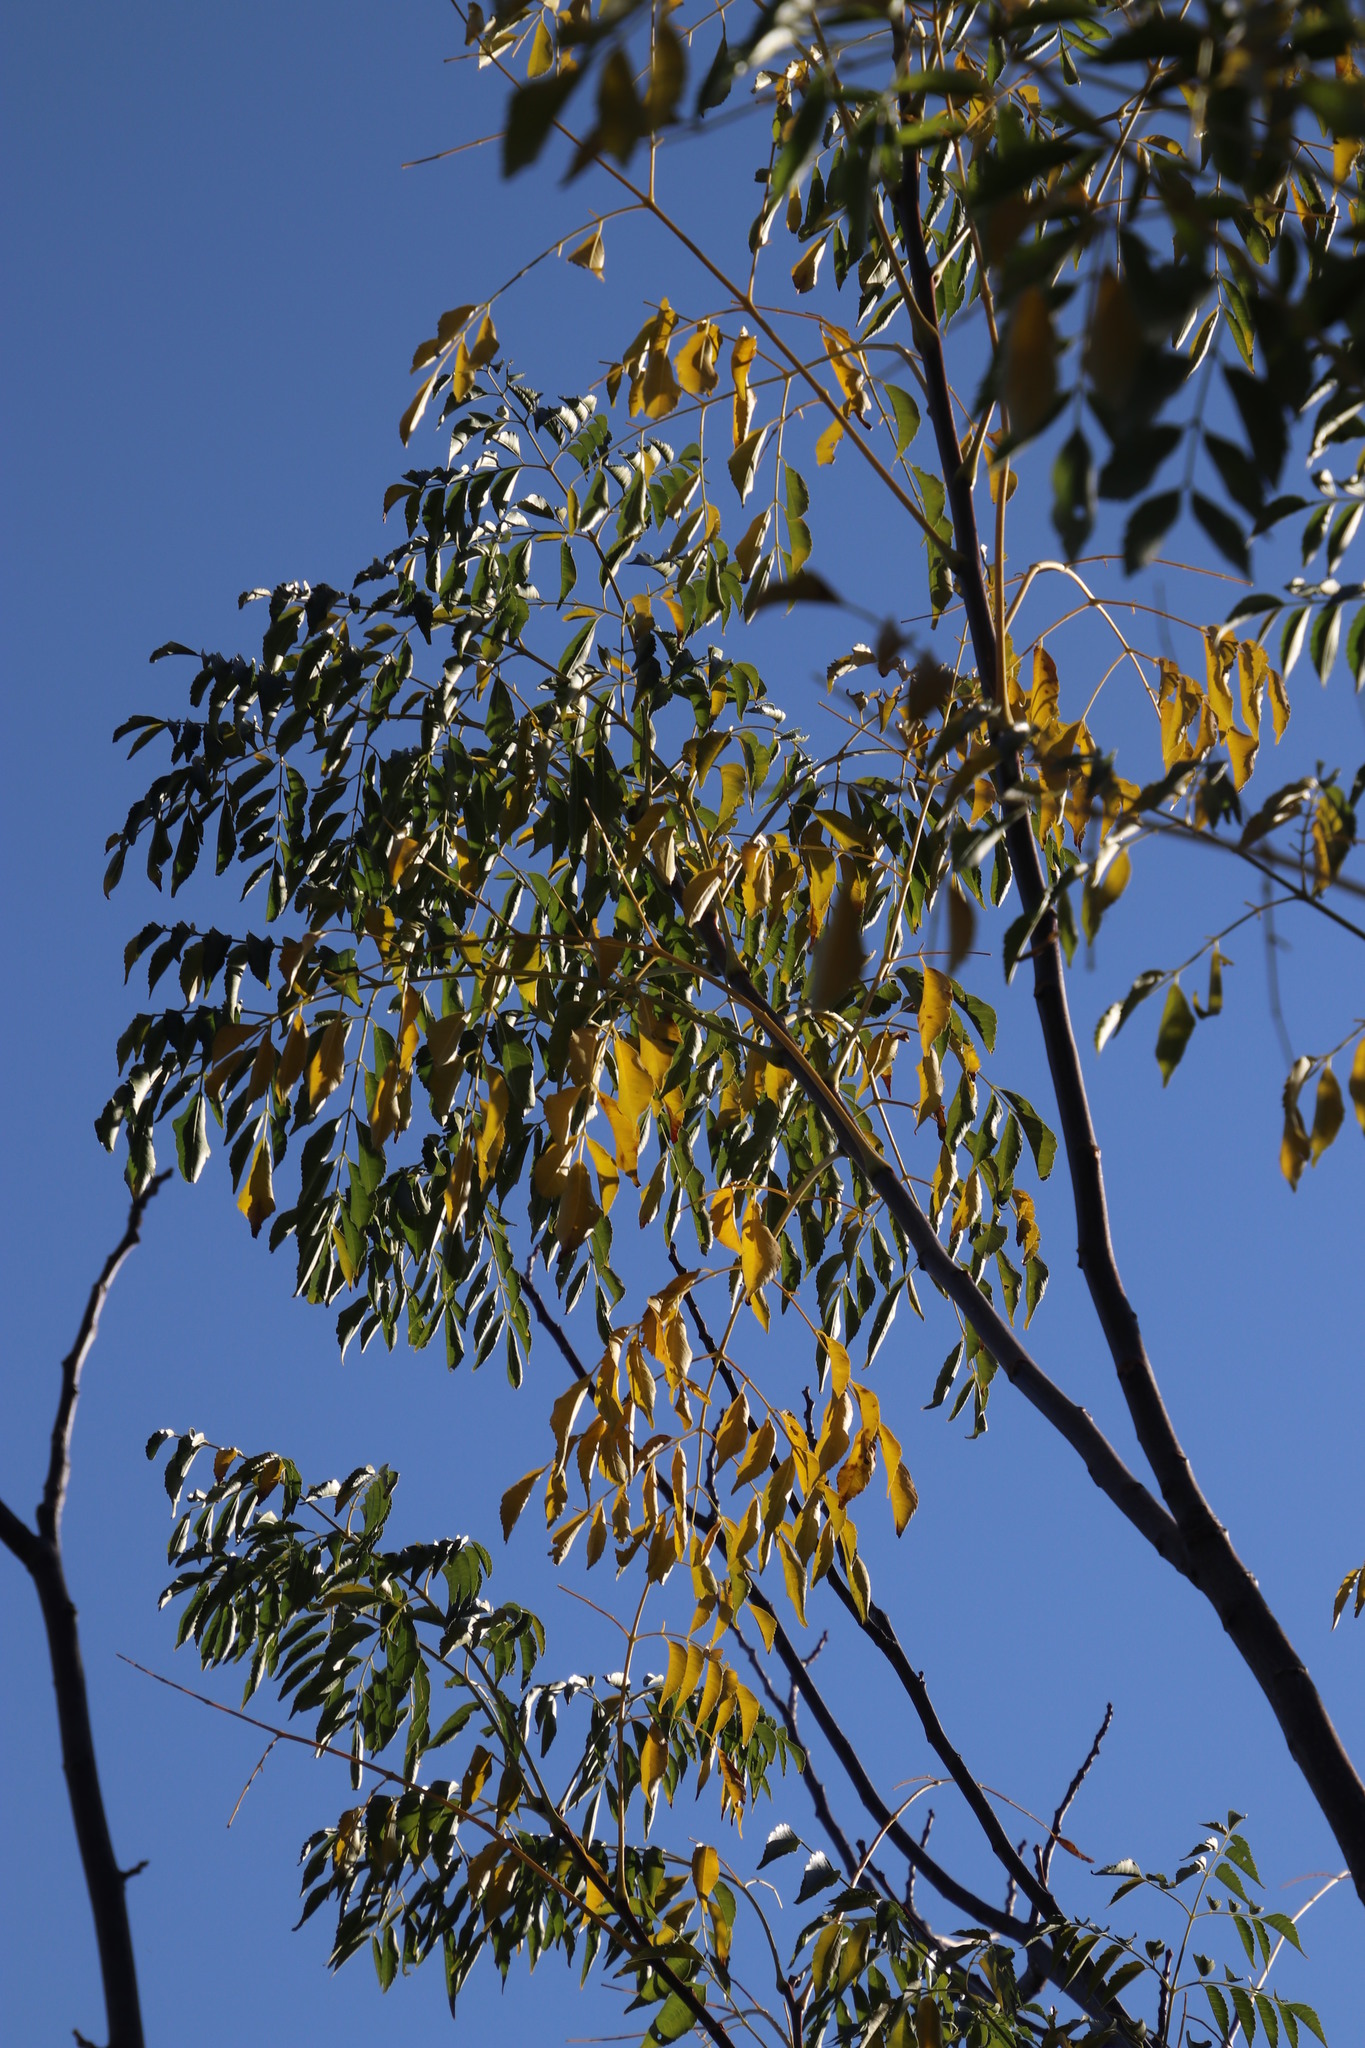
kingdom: Plantae
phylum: Tracheophyta
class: Magnoliopsida
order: Sapindales
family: Meliaceae
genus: Melia
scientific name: Melia azedarach
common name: Chinaberrytree
